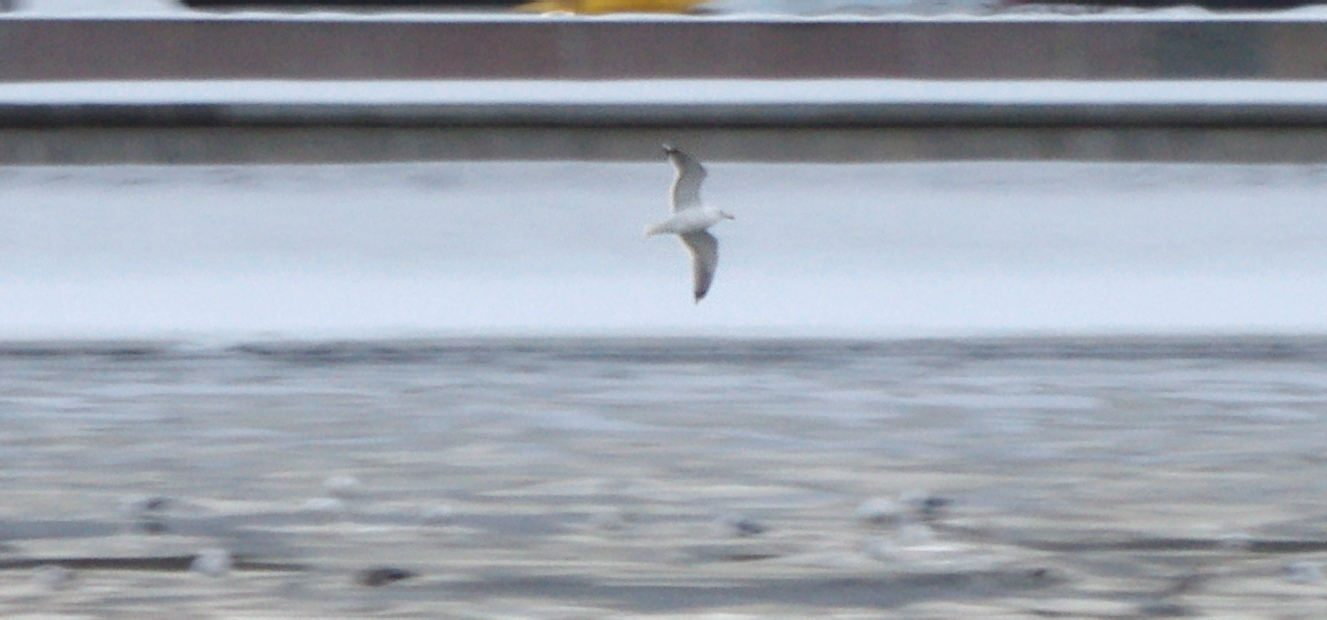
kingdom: Animalia
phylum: Chordata
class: Aves
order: Charadriiformes
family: Laridae
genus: Larus
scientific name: Larus argentatus
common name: Herring gull
